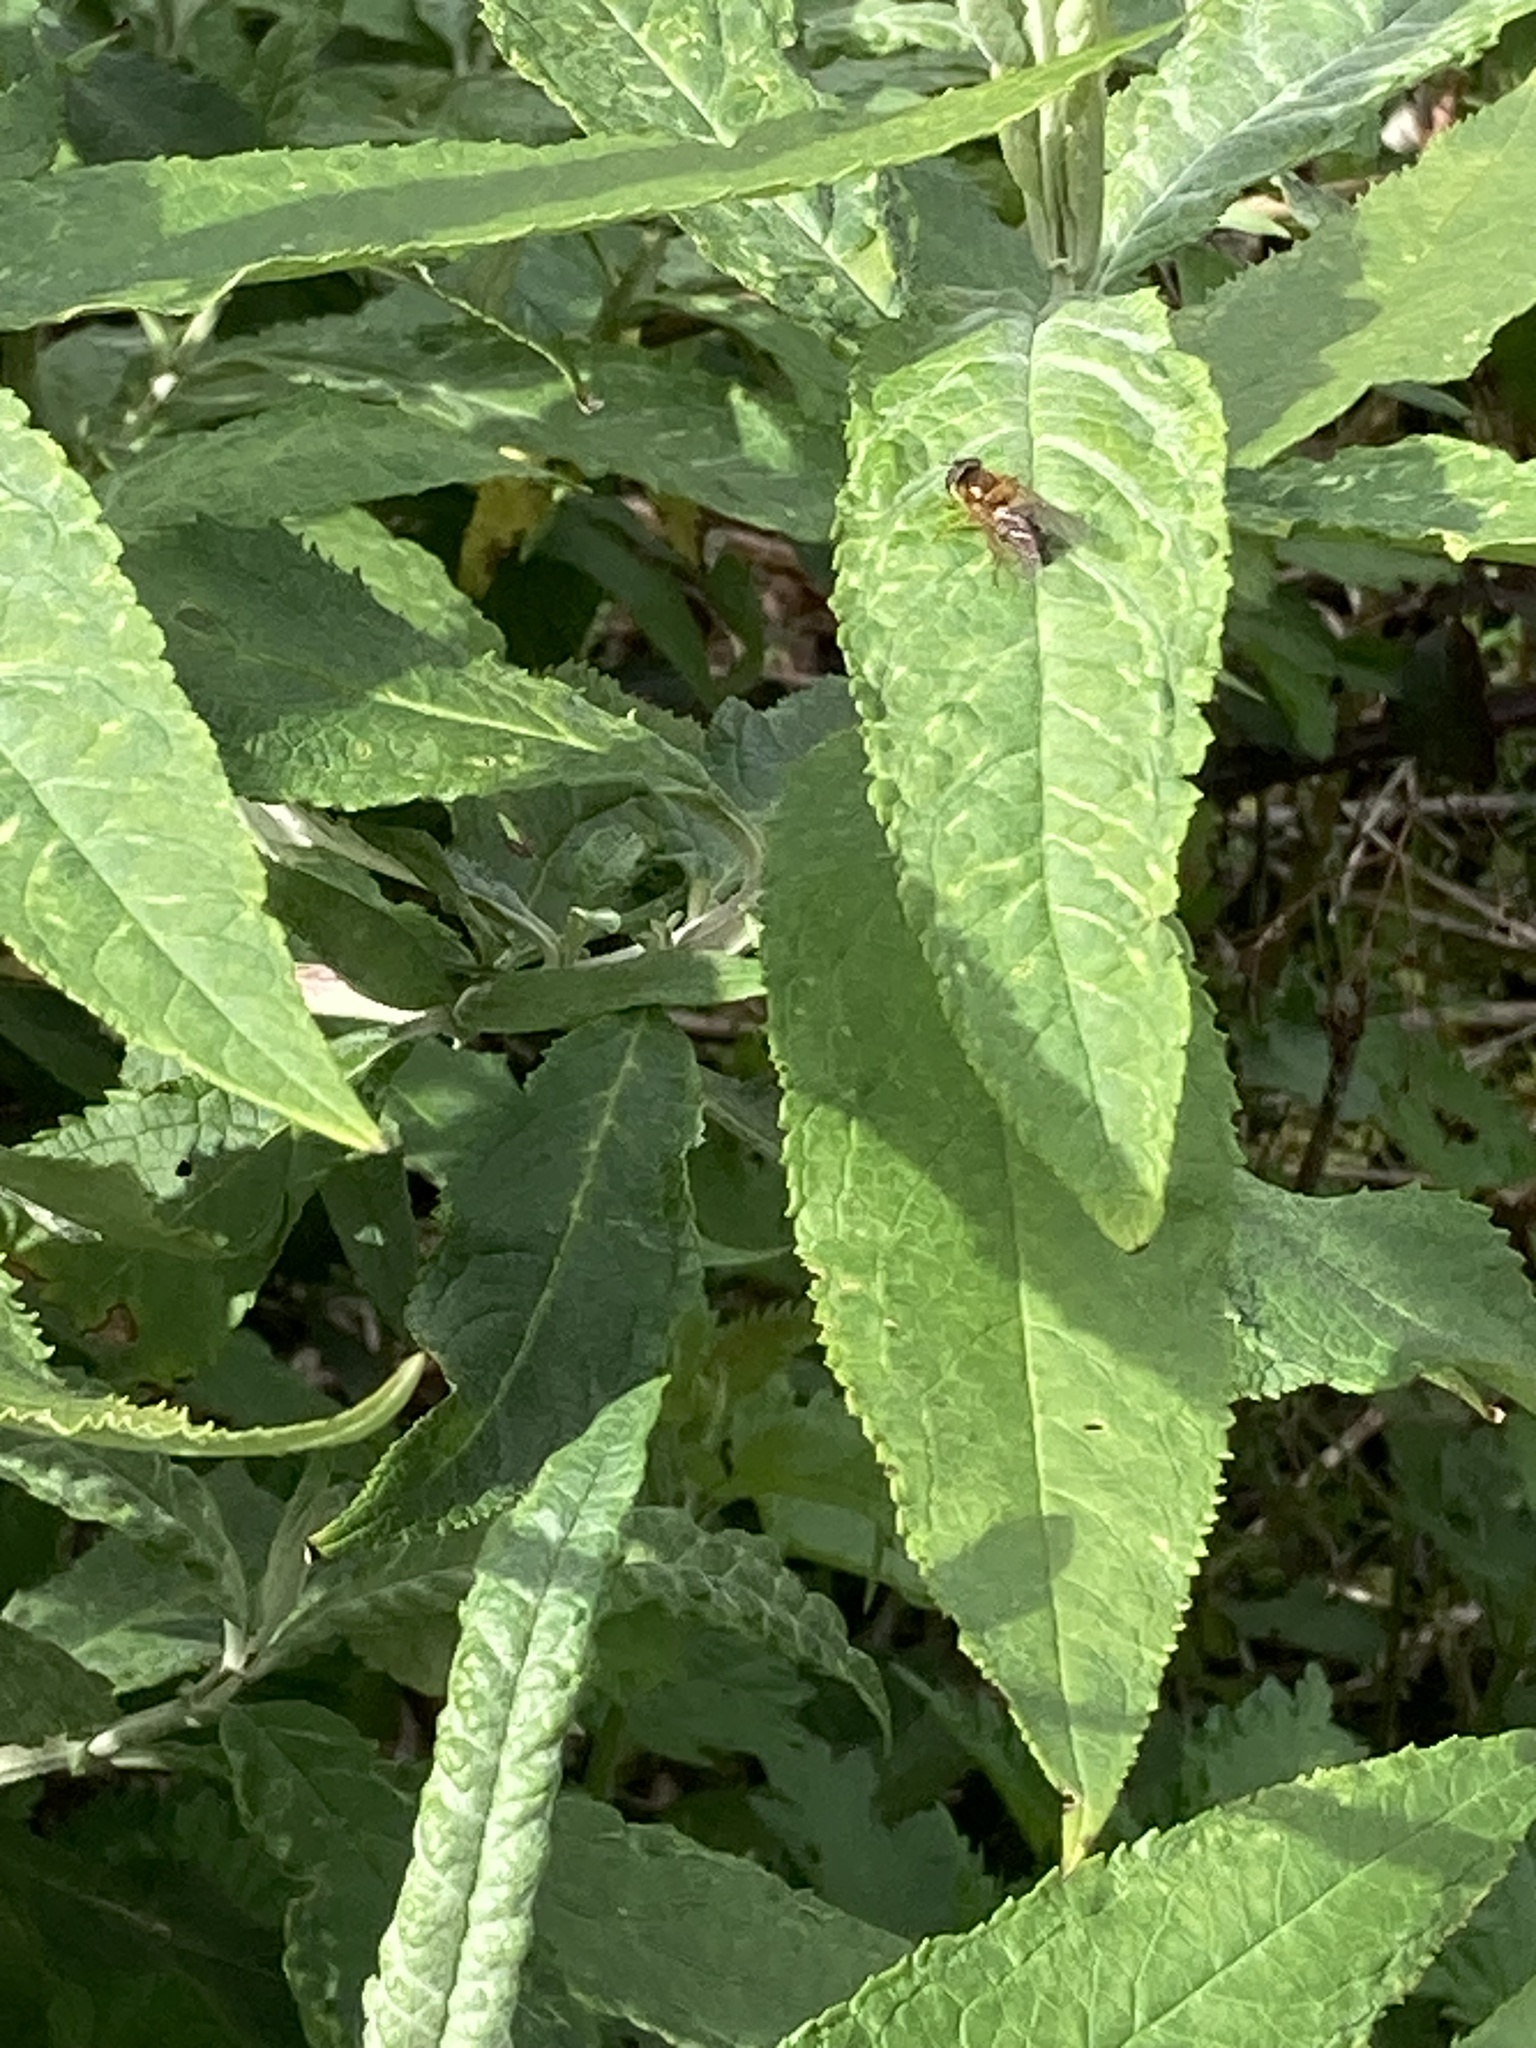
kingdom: Animalia
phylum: Arthropoda
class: Insecta
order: Diptera
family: Syrphidae
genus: Epistrophe
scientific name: Epistrophe eligans
